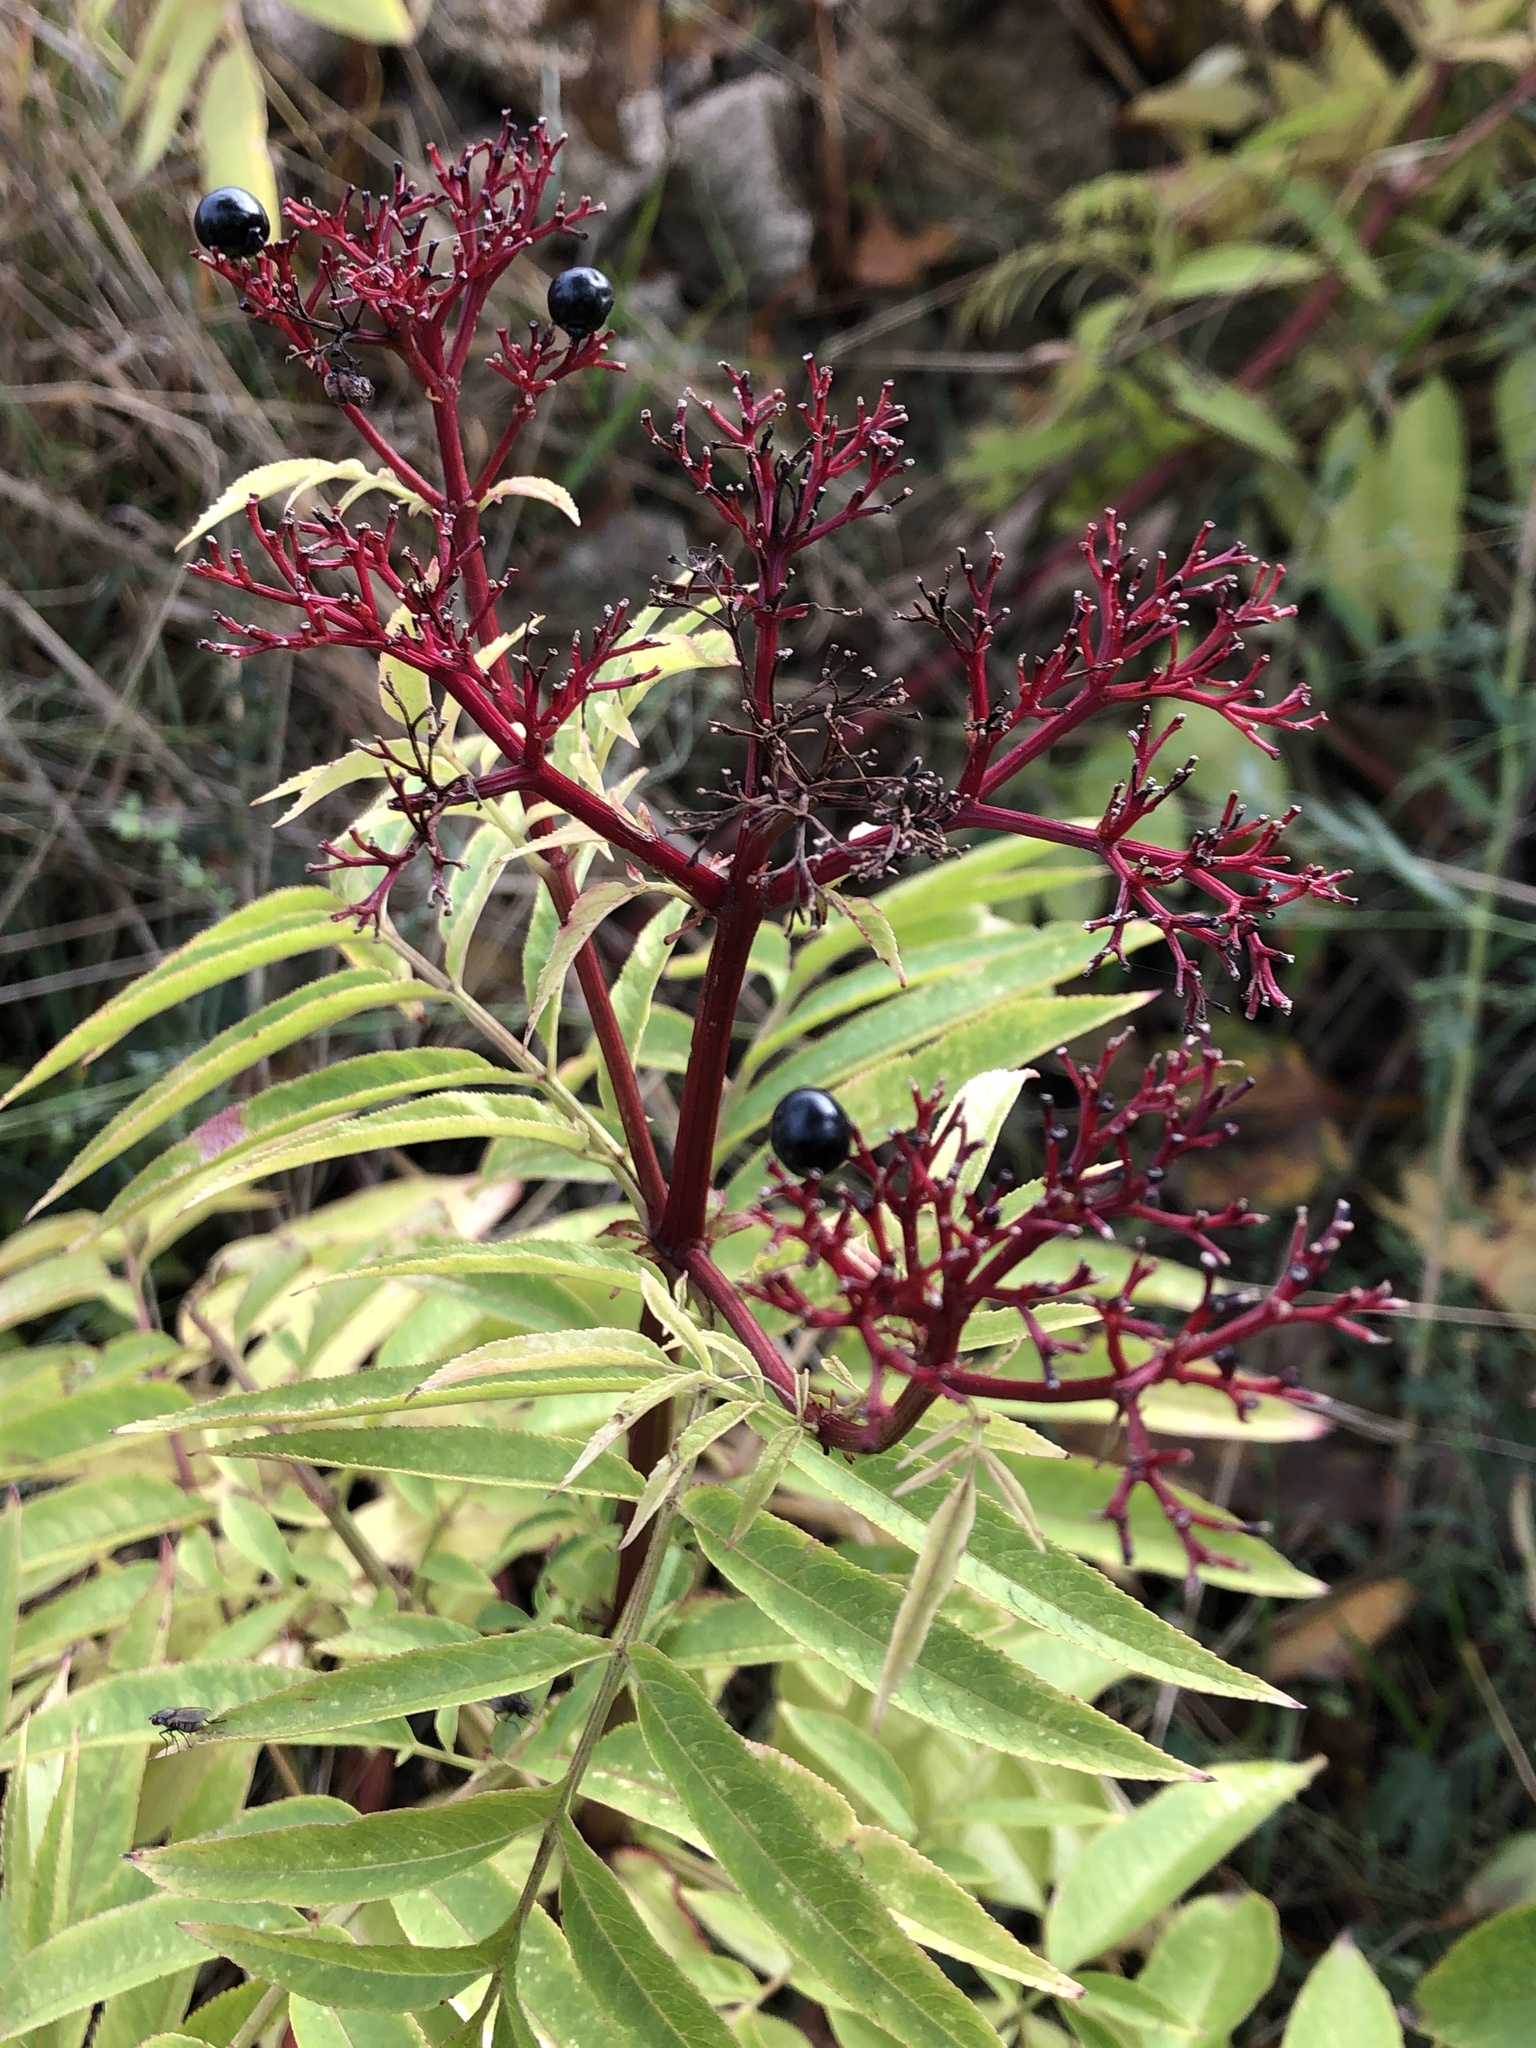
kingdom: Plantae
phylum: Tracheophyta
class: Magnoliopsida
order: Dipsacales
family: Viburnaceae
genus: Sambucus
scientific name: Sambucus ebulus
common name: Dwarf elder
